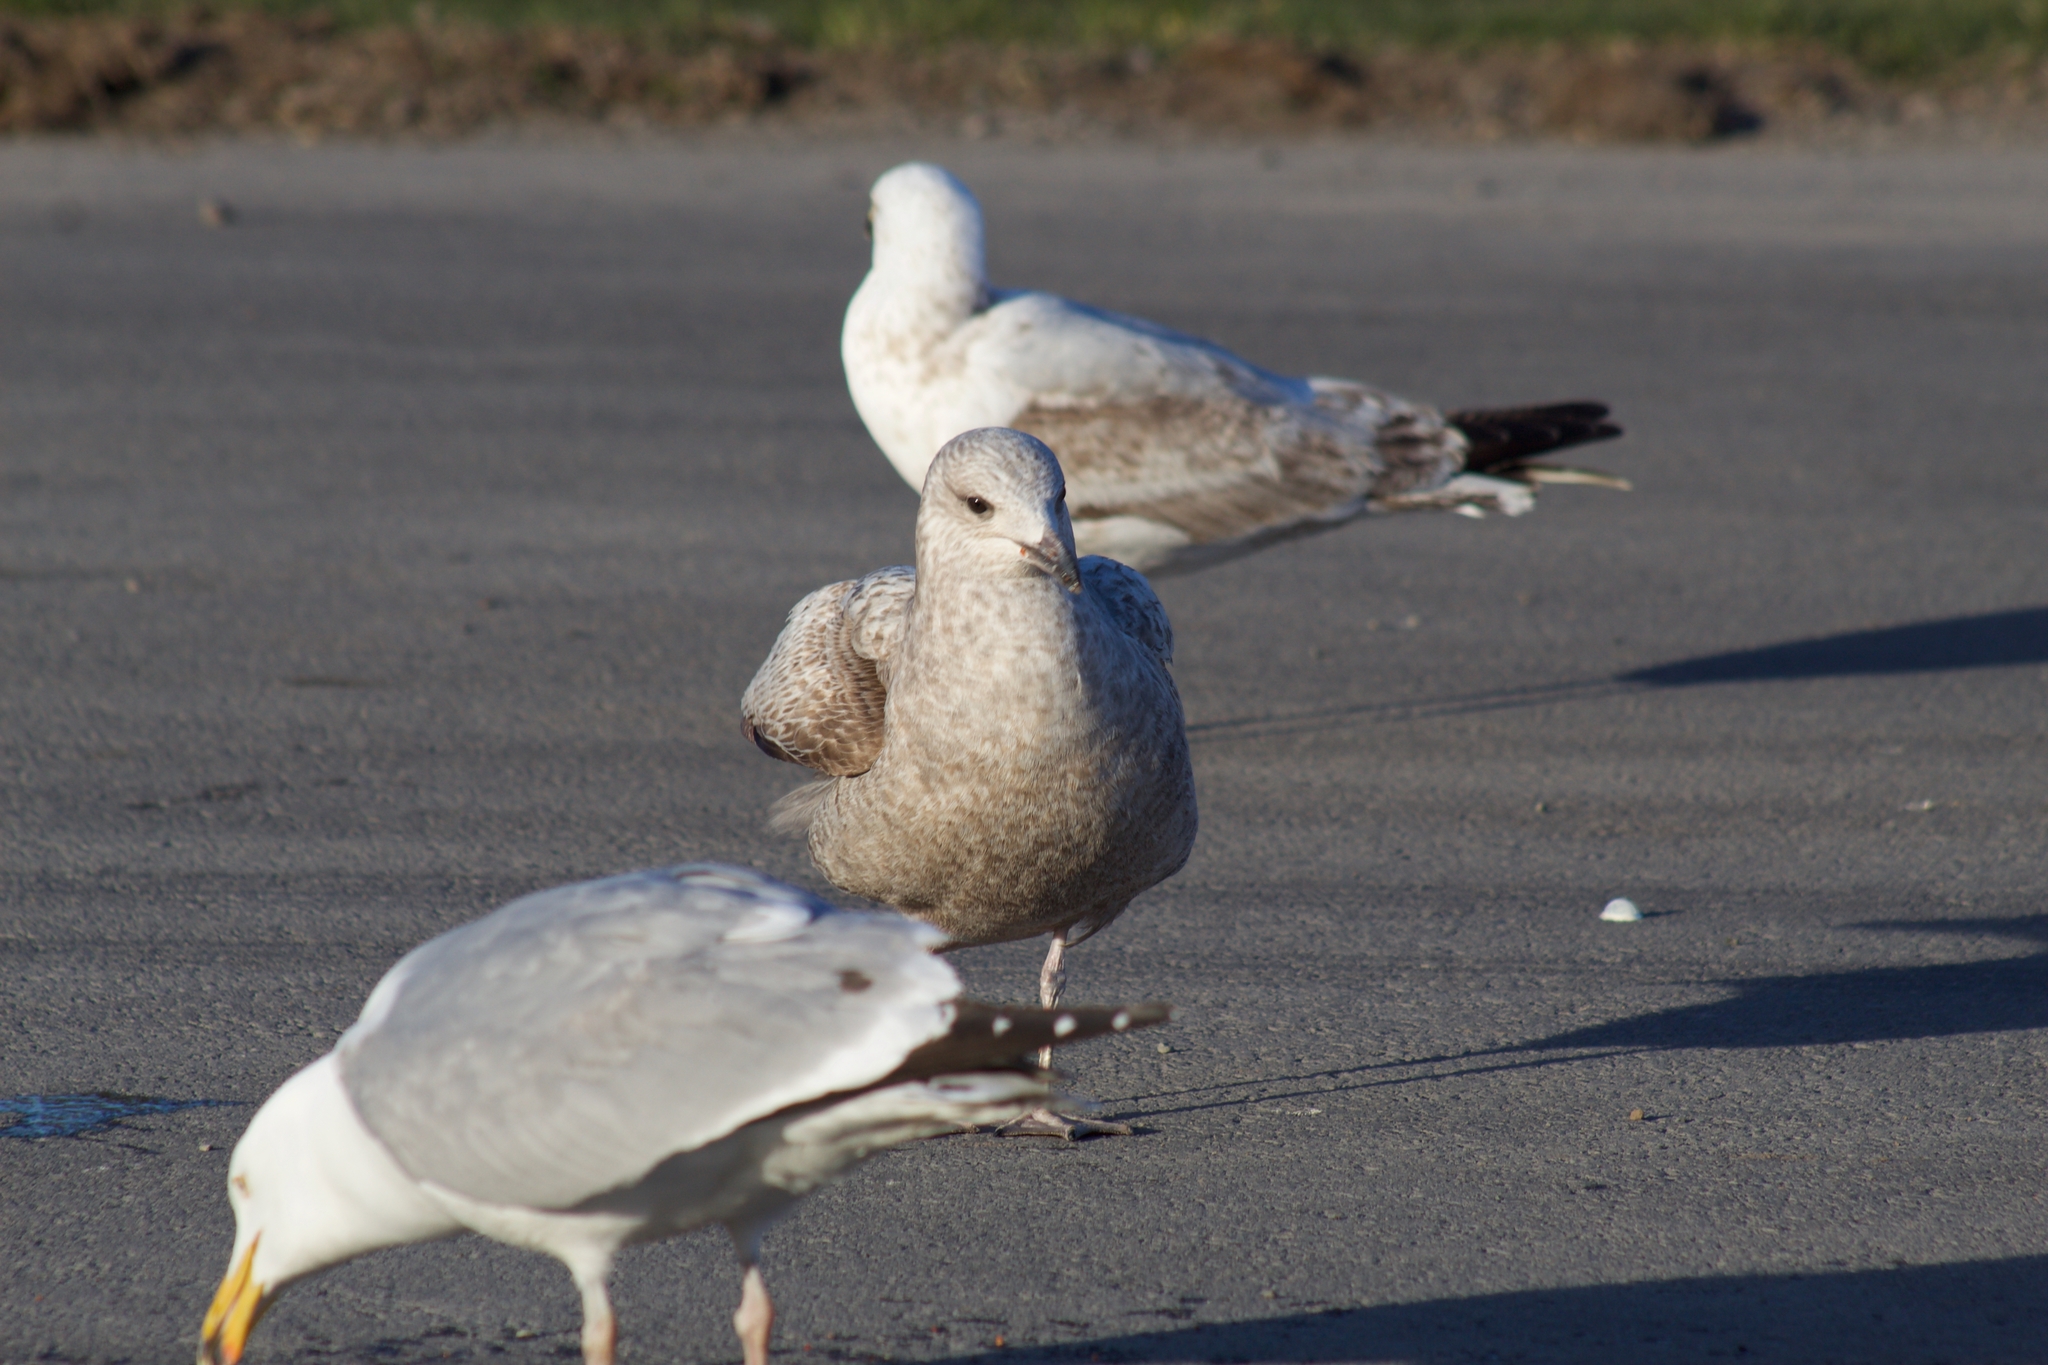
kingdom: Animalia
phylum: Chordata
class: Aves
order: Charadriiformes
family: Laridae
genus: Larus
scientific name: Larus argentatus
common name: Herring gull
